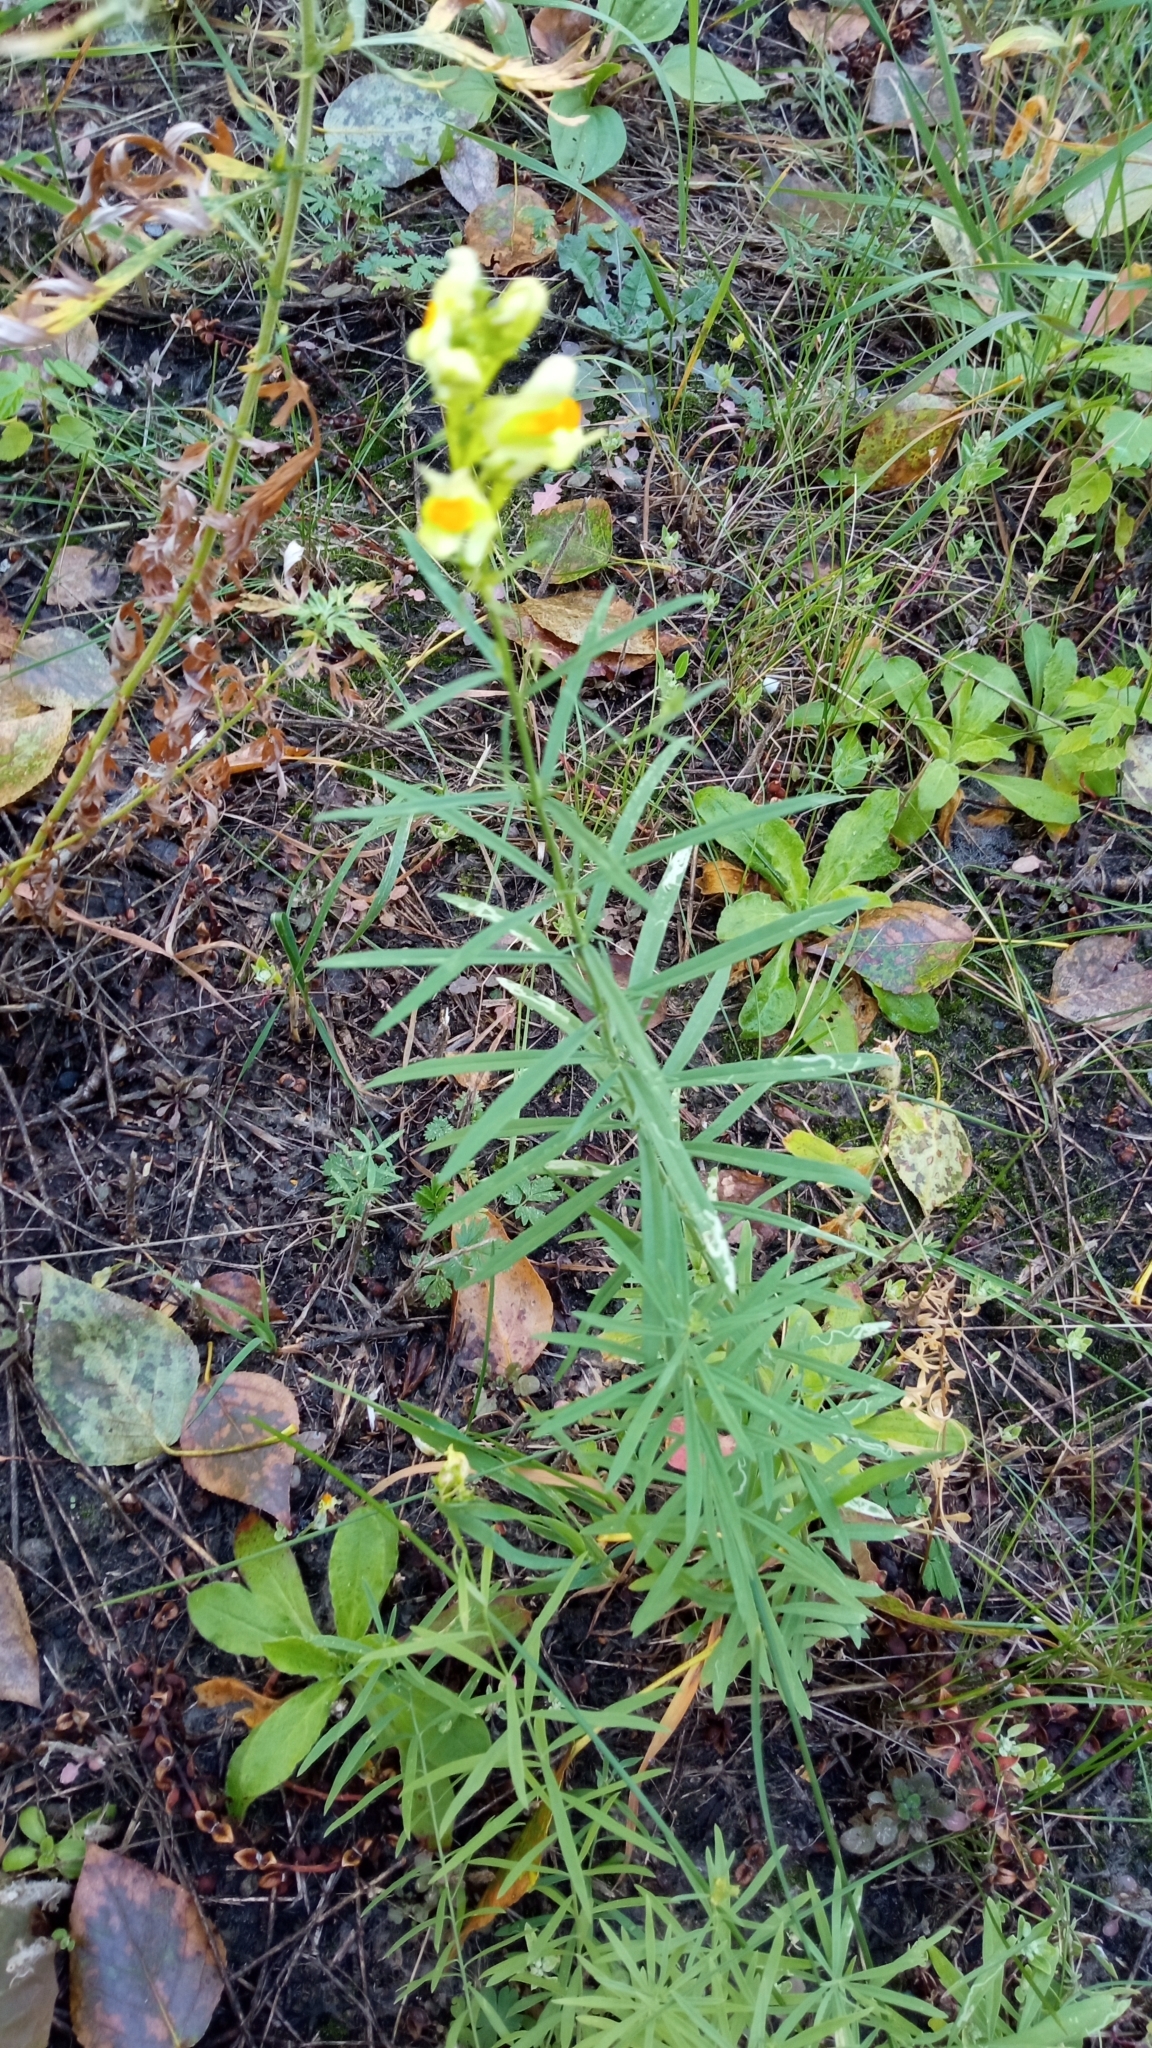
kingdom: Plantae
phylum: Tracheophyta
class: Magnoliopsida
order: Lamiales
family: Plantaginaceae
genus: Linaria
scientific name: Linaria vulgaris
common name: Butter and eggs
